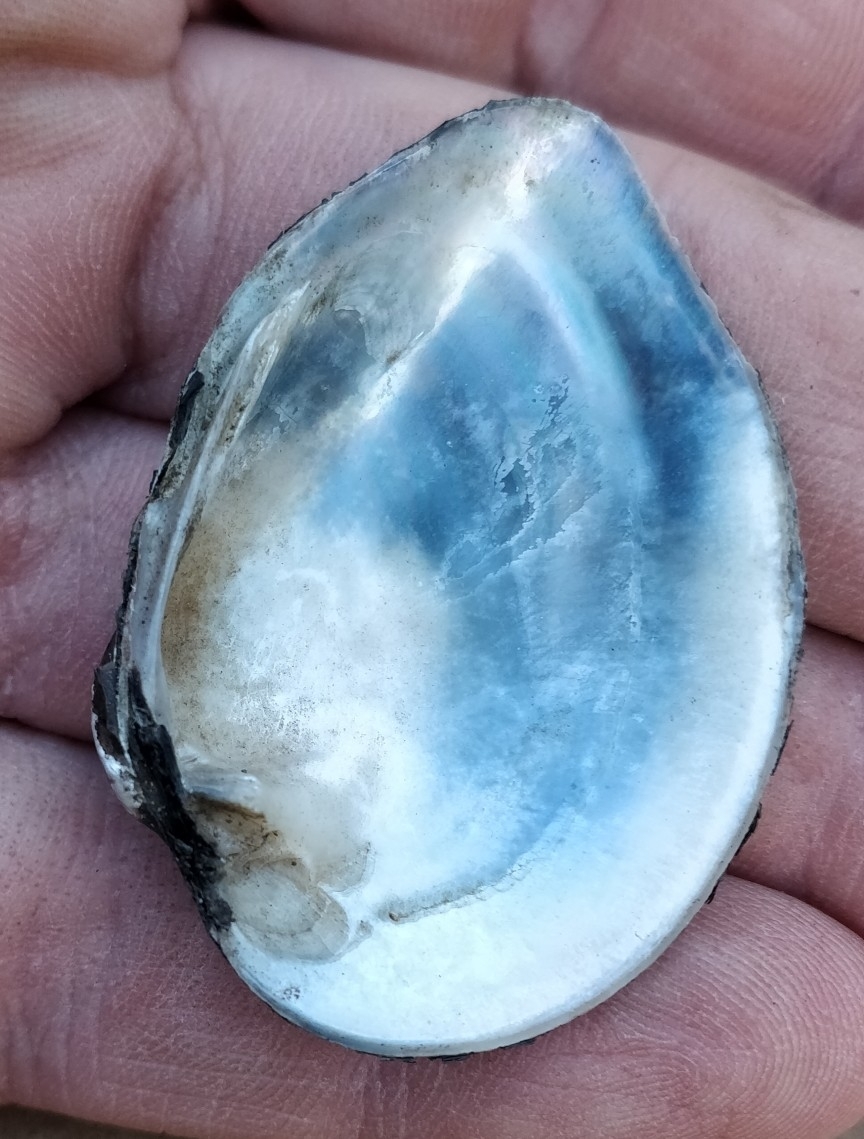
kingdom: Animalia
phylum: Mollusca
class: Bivalvia
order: Unionida
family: Unionidae
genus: Truncilla
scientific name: Truncilla truncata
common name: Deertoe
